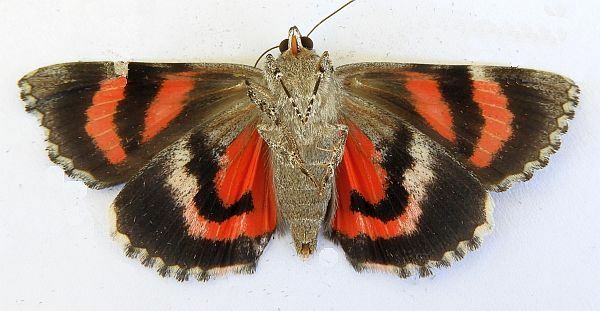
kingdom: Animalia
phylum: Arthropoda
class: Insecta
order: Lepidoptera
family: Erebidae
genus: Catocala
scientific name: Catocala violenta
